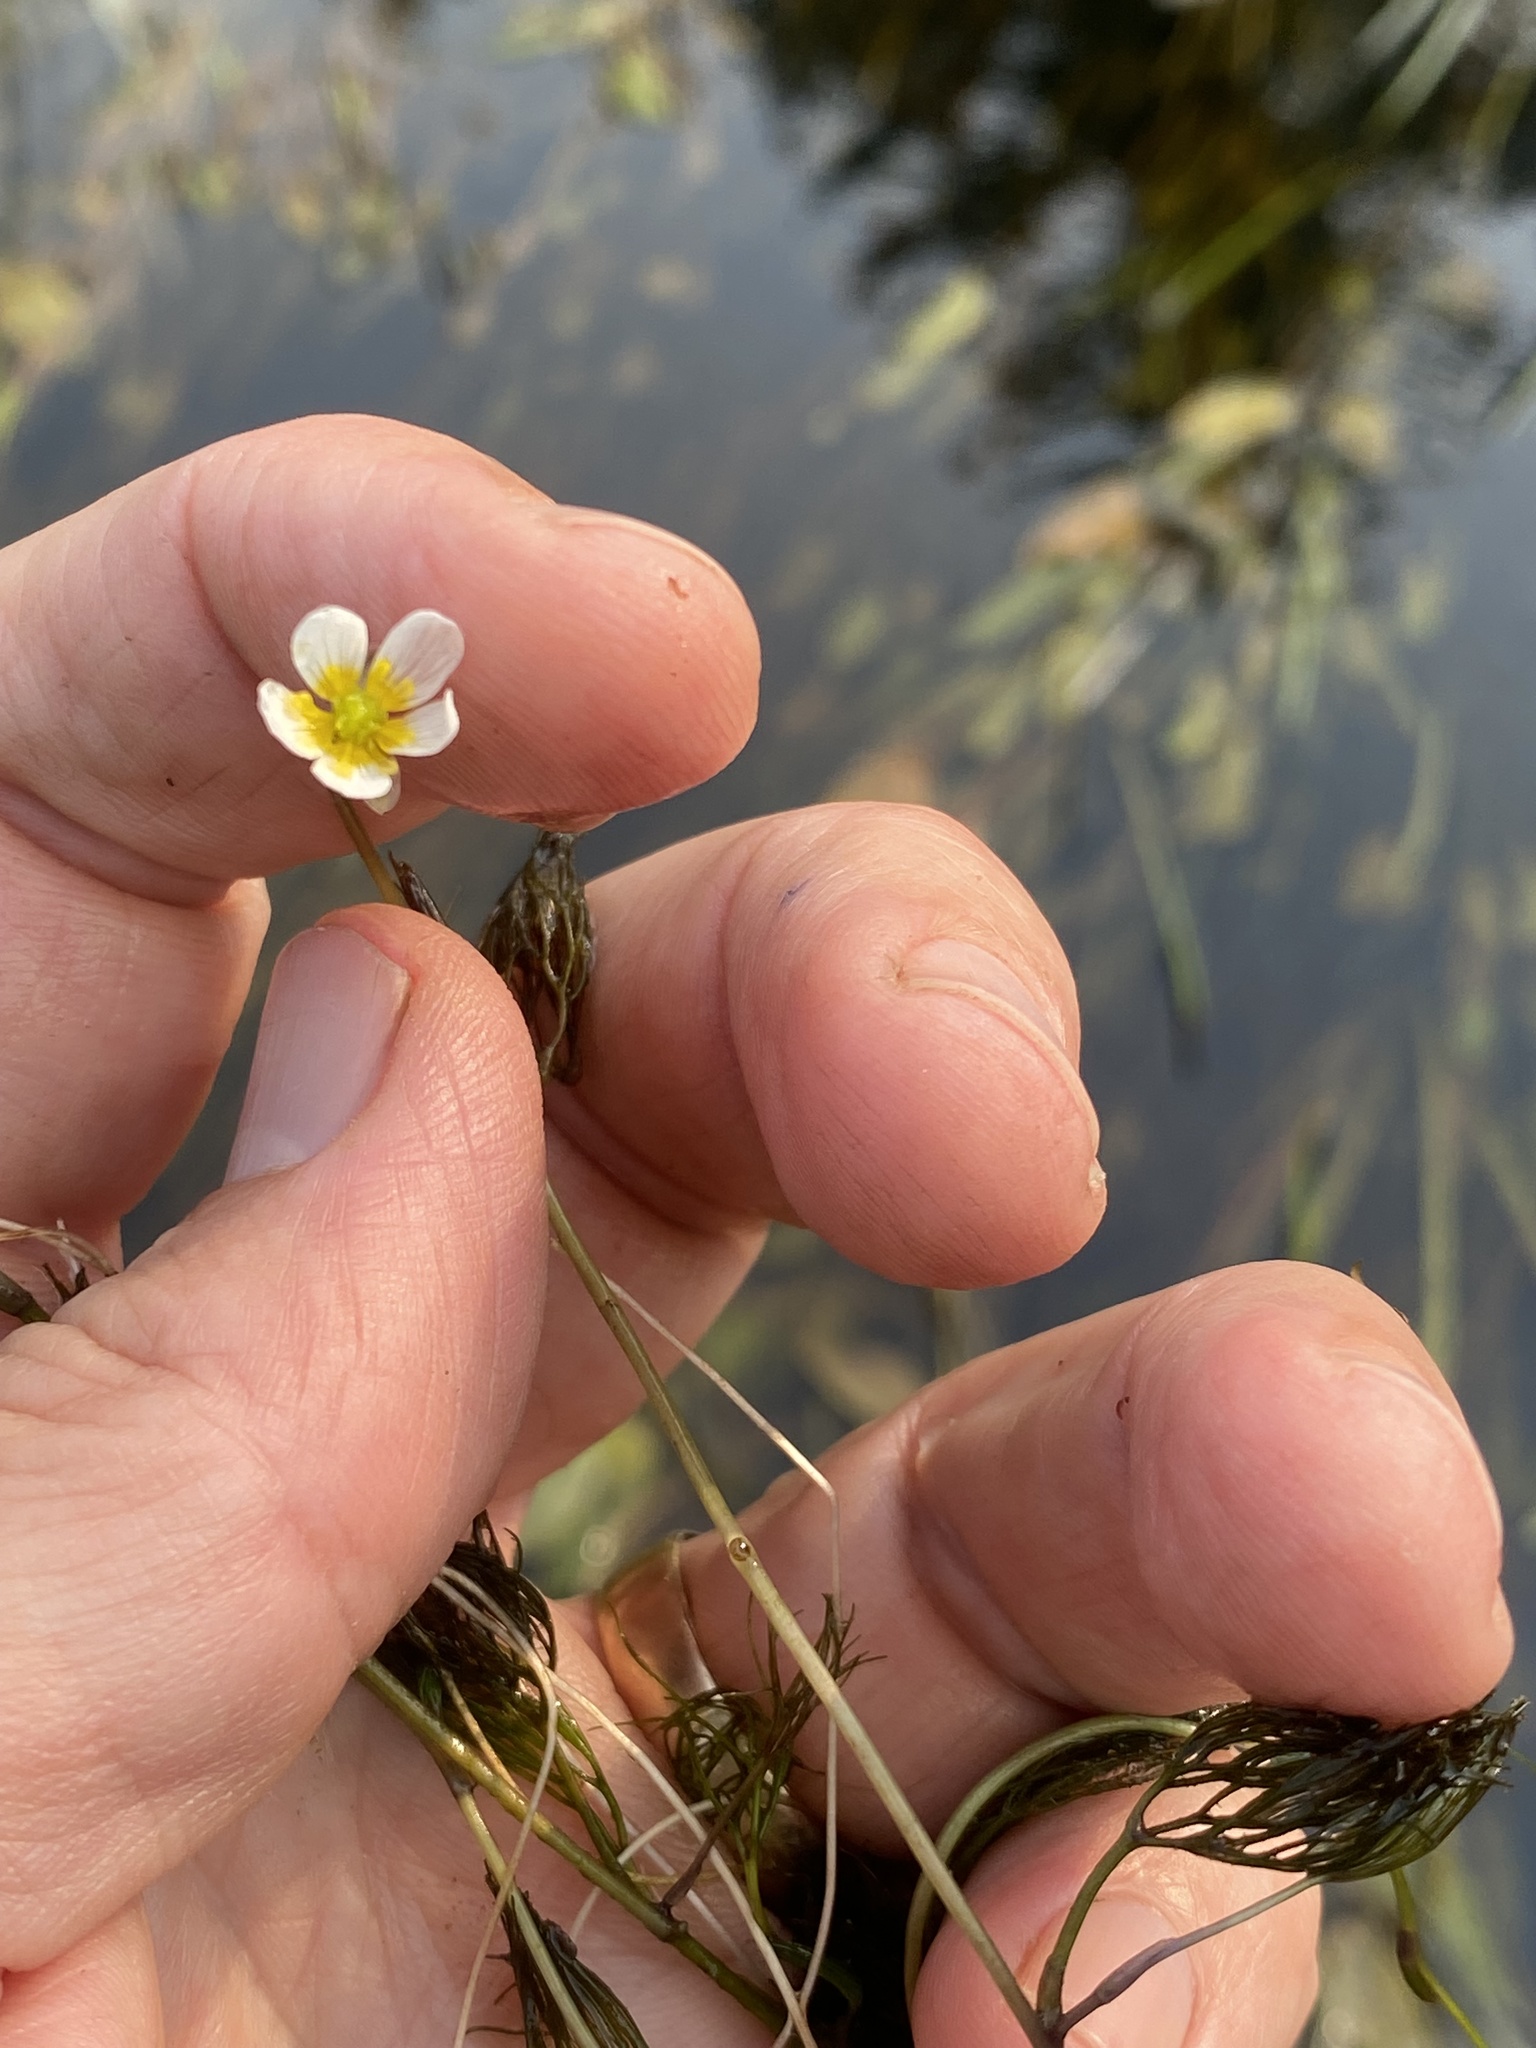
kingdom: Plantae
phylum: Tracheophyta
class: Magnoliopsida
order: Ranunculales
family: Ranunculaceae
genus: Ranunculus
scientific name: Ranunculus aquatilis
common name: Common water-crowfoot
